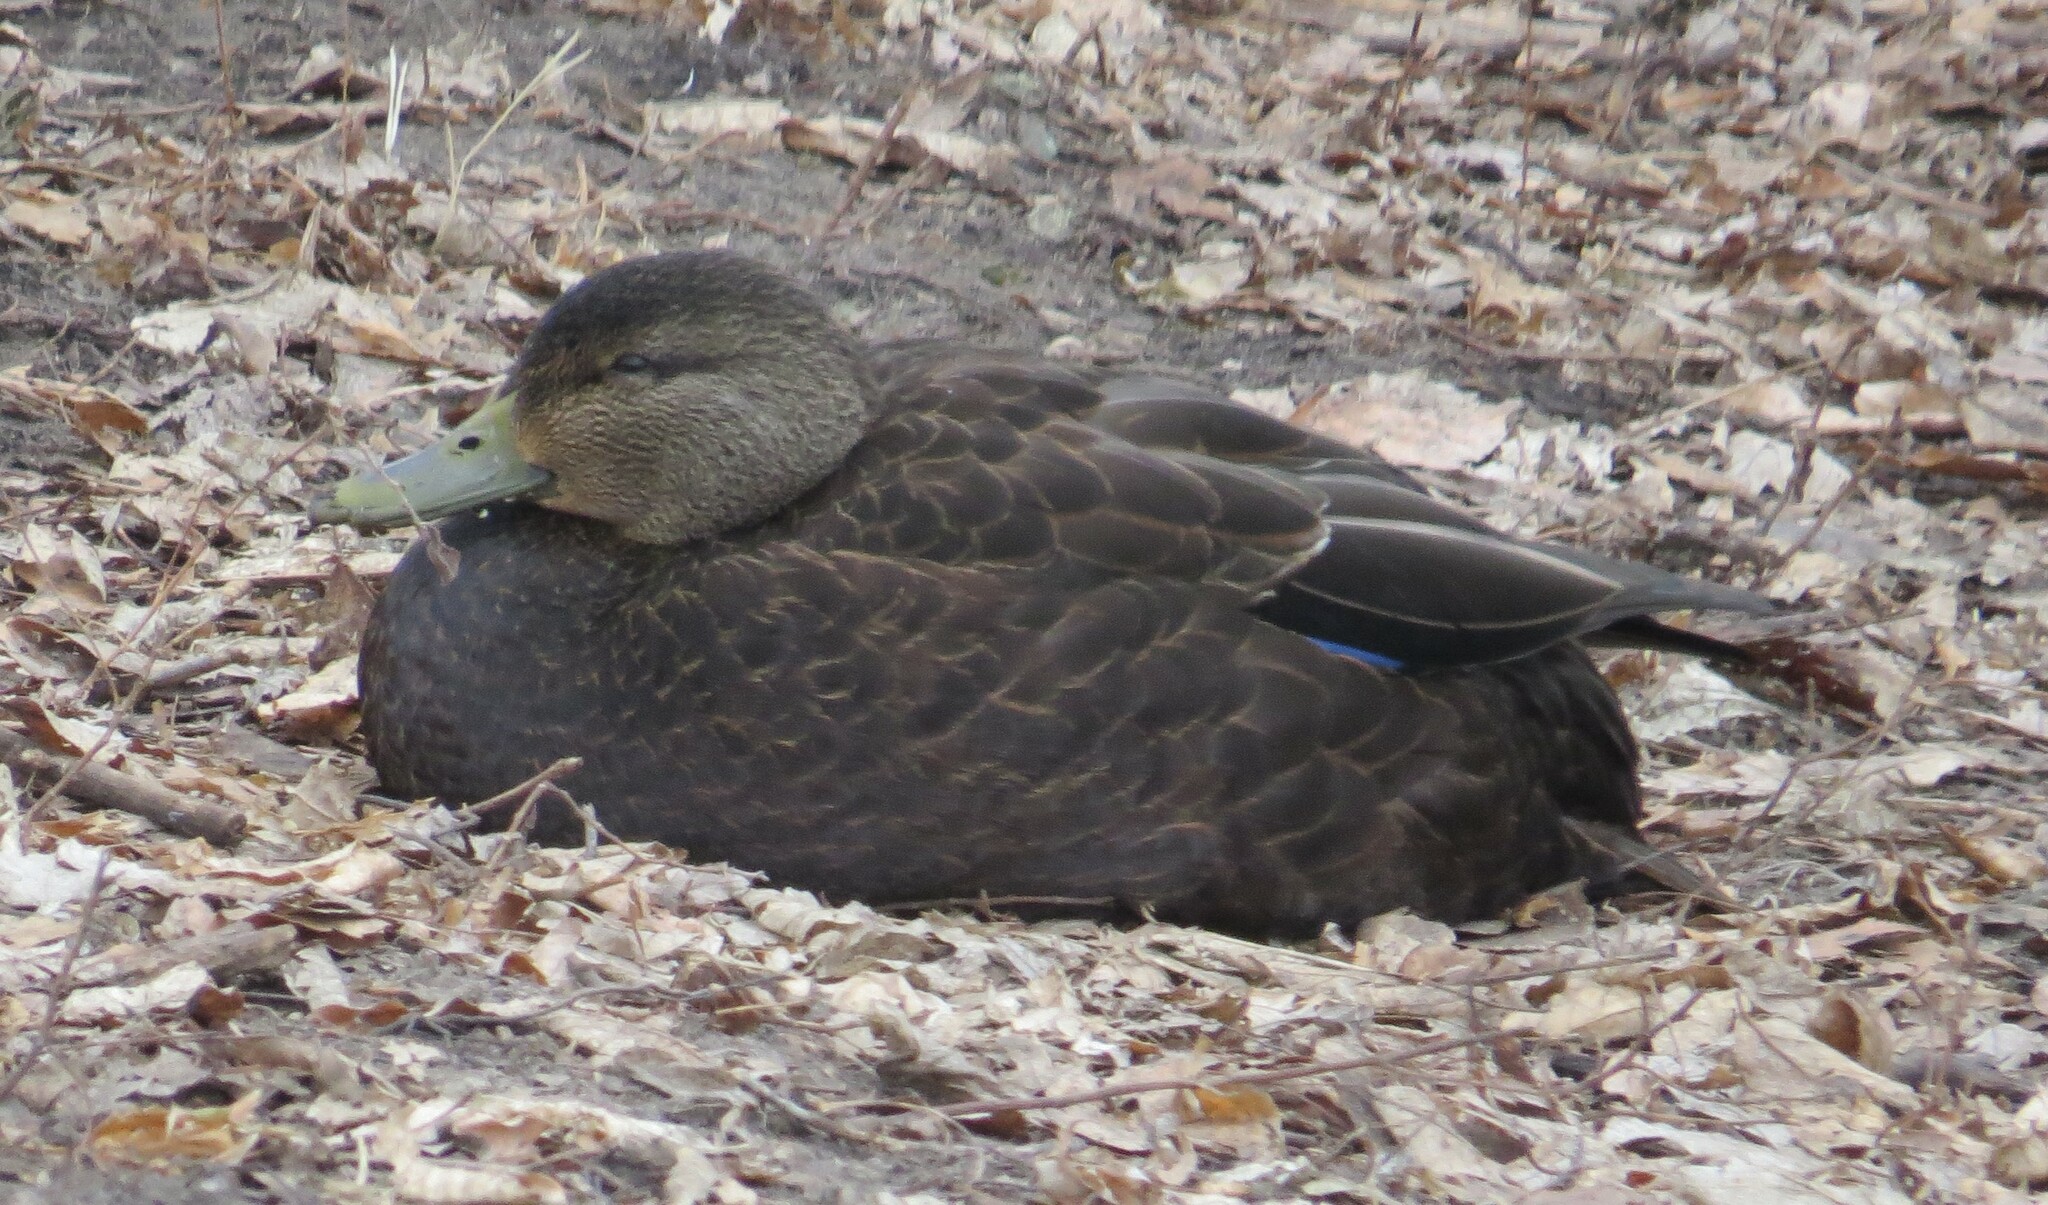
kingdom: Animalia
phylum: Chordata
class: Aves
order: Anseriformes
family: Anatidae
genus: Anas
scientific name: Anas rubripes
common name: American black duck
